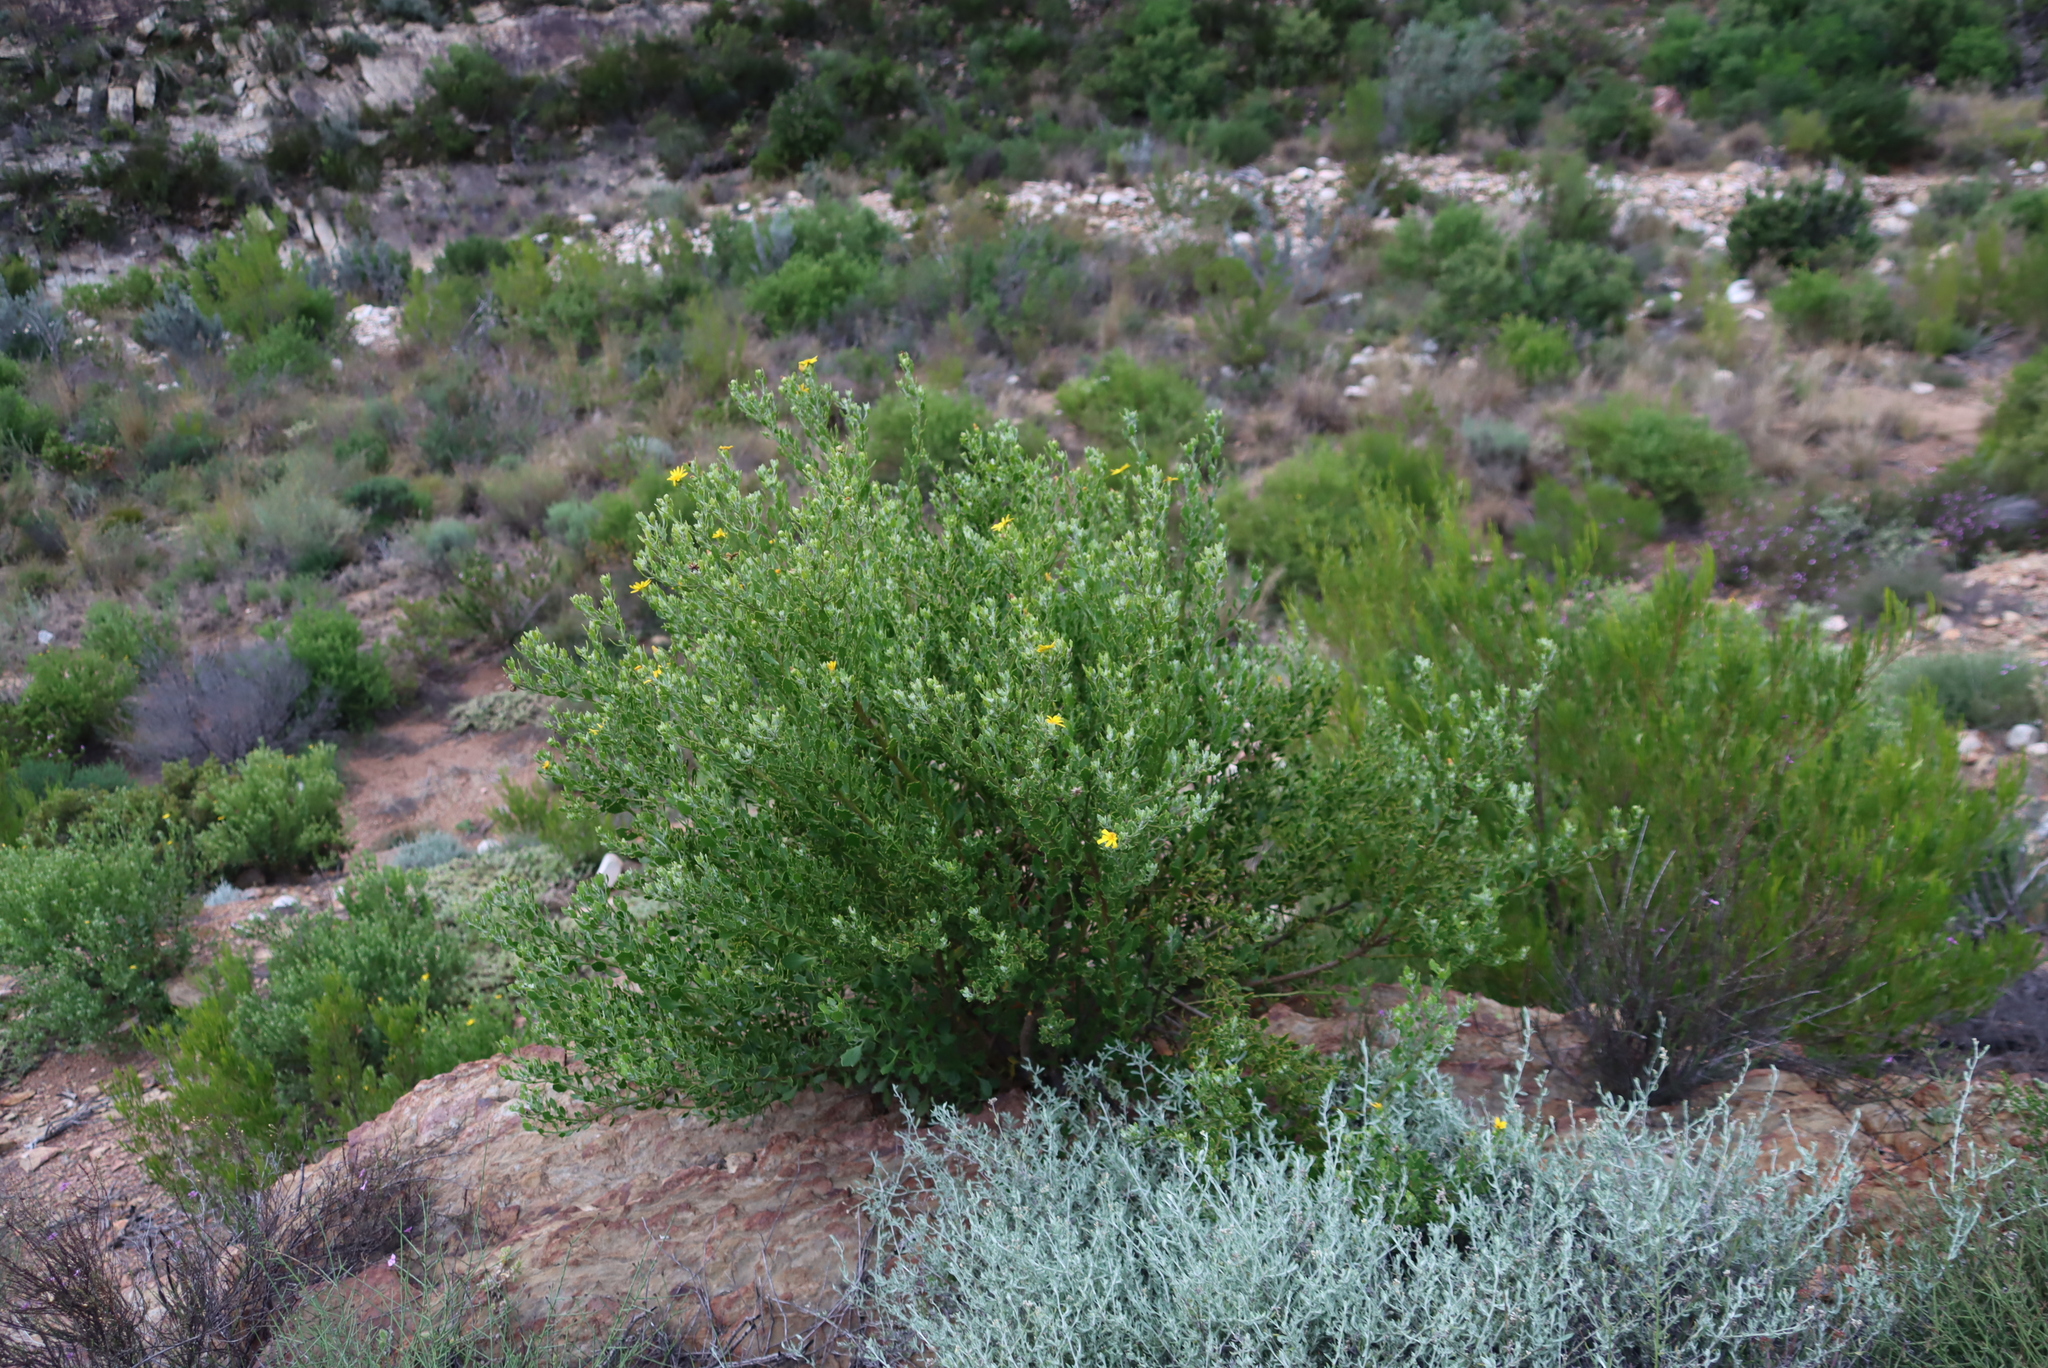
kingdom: Plantae
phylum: Tracheophyta
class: Magnoliopsida
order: Asterales
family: Asteraceae
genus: Osteospermum
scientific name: Osteospermum moniliferum
